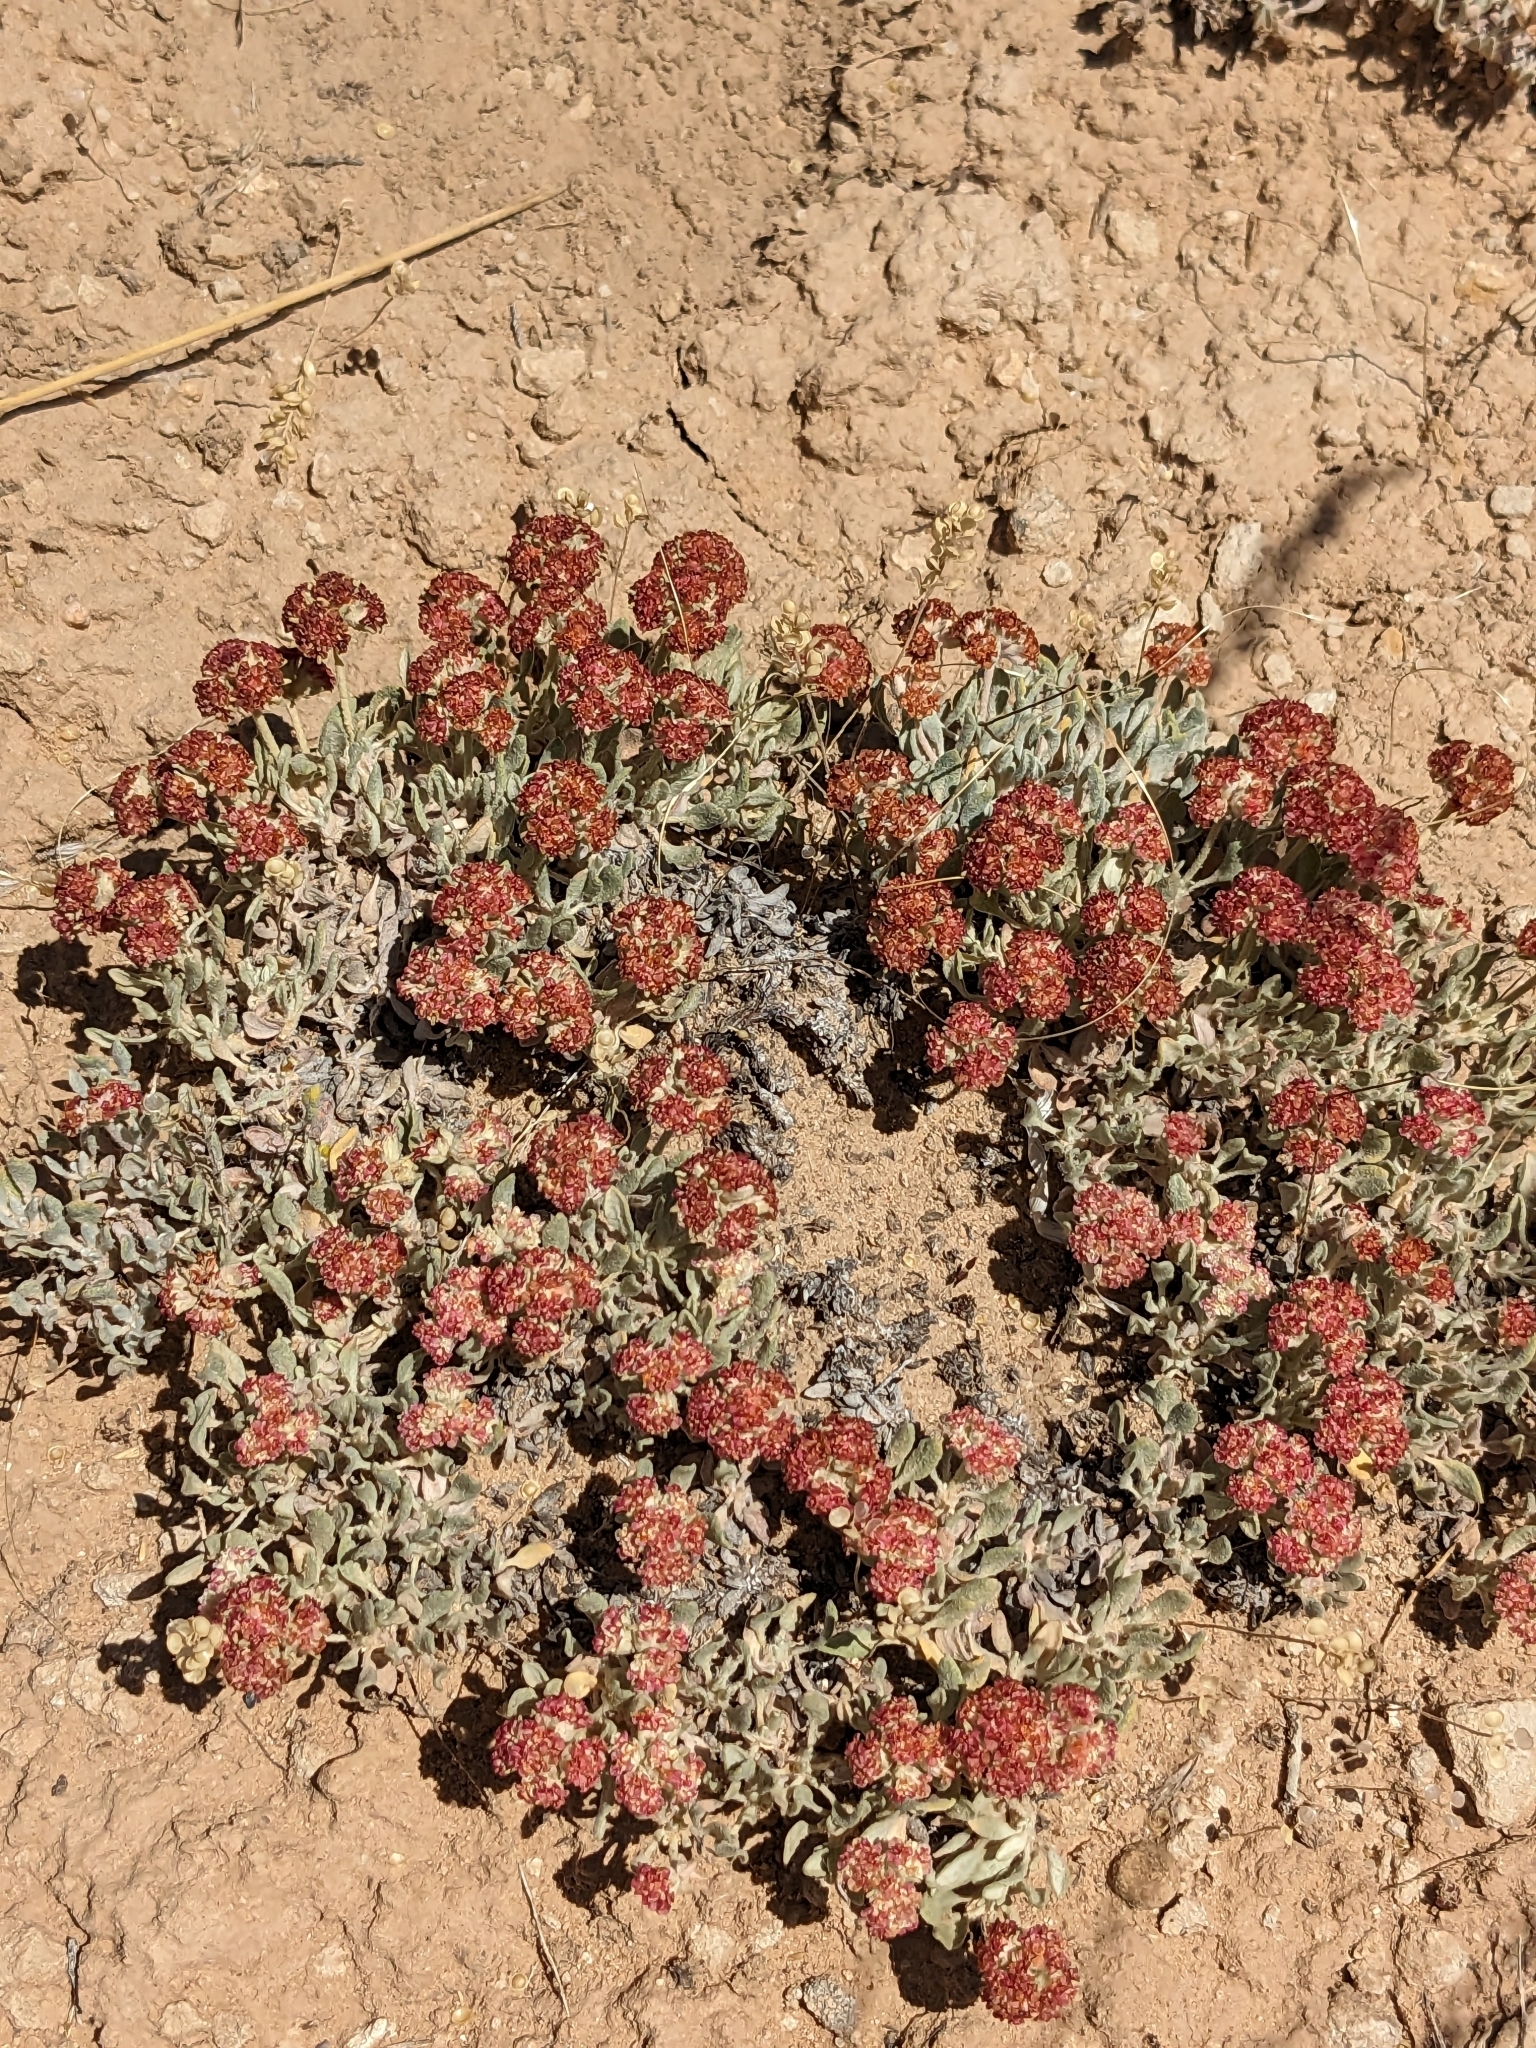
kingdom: Plantae
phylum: Tracheophyta
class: Magnoliopsida
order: Caryophyllales
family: Polygonaceae
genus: Eriogonum
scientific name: Eriogonum ovalifolium
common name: Cushion buckwheat
